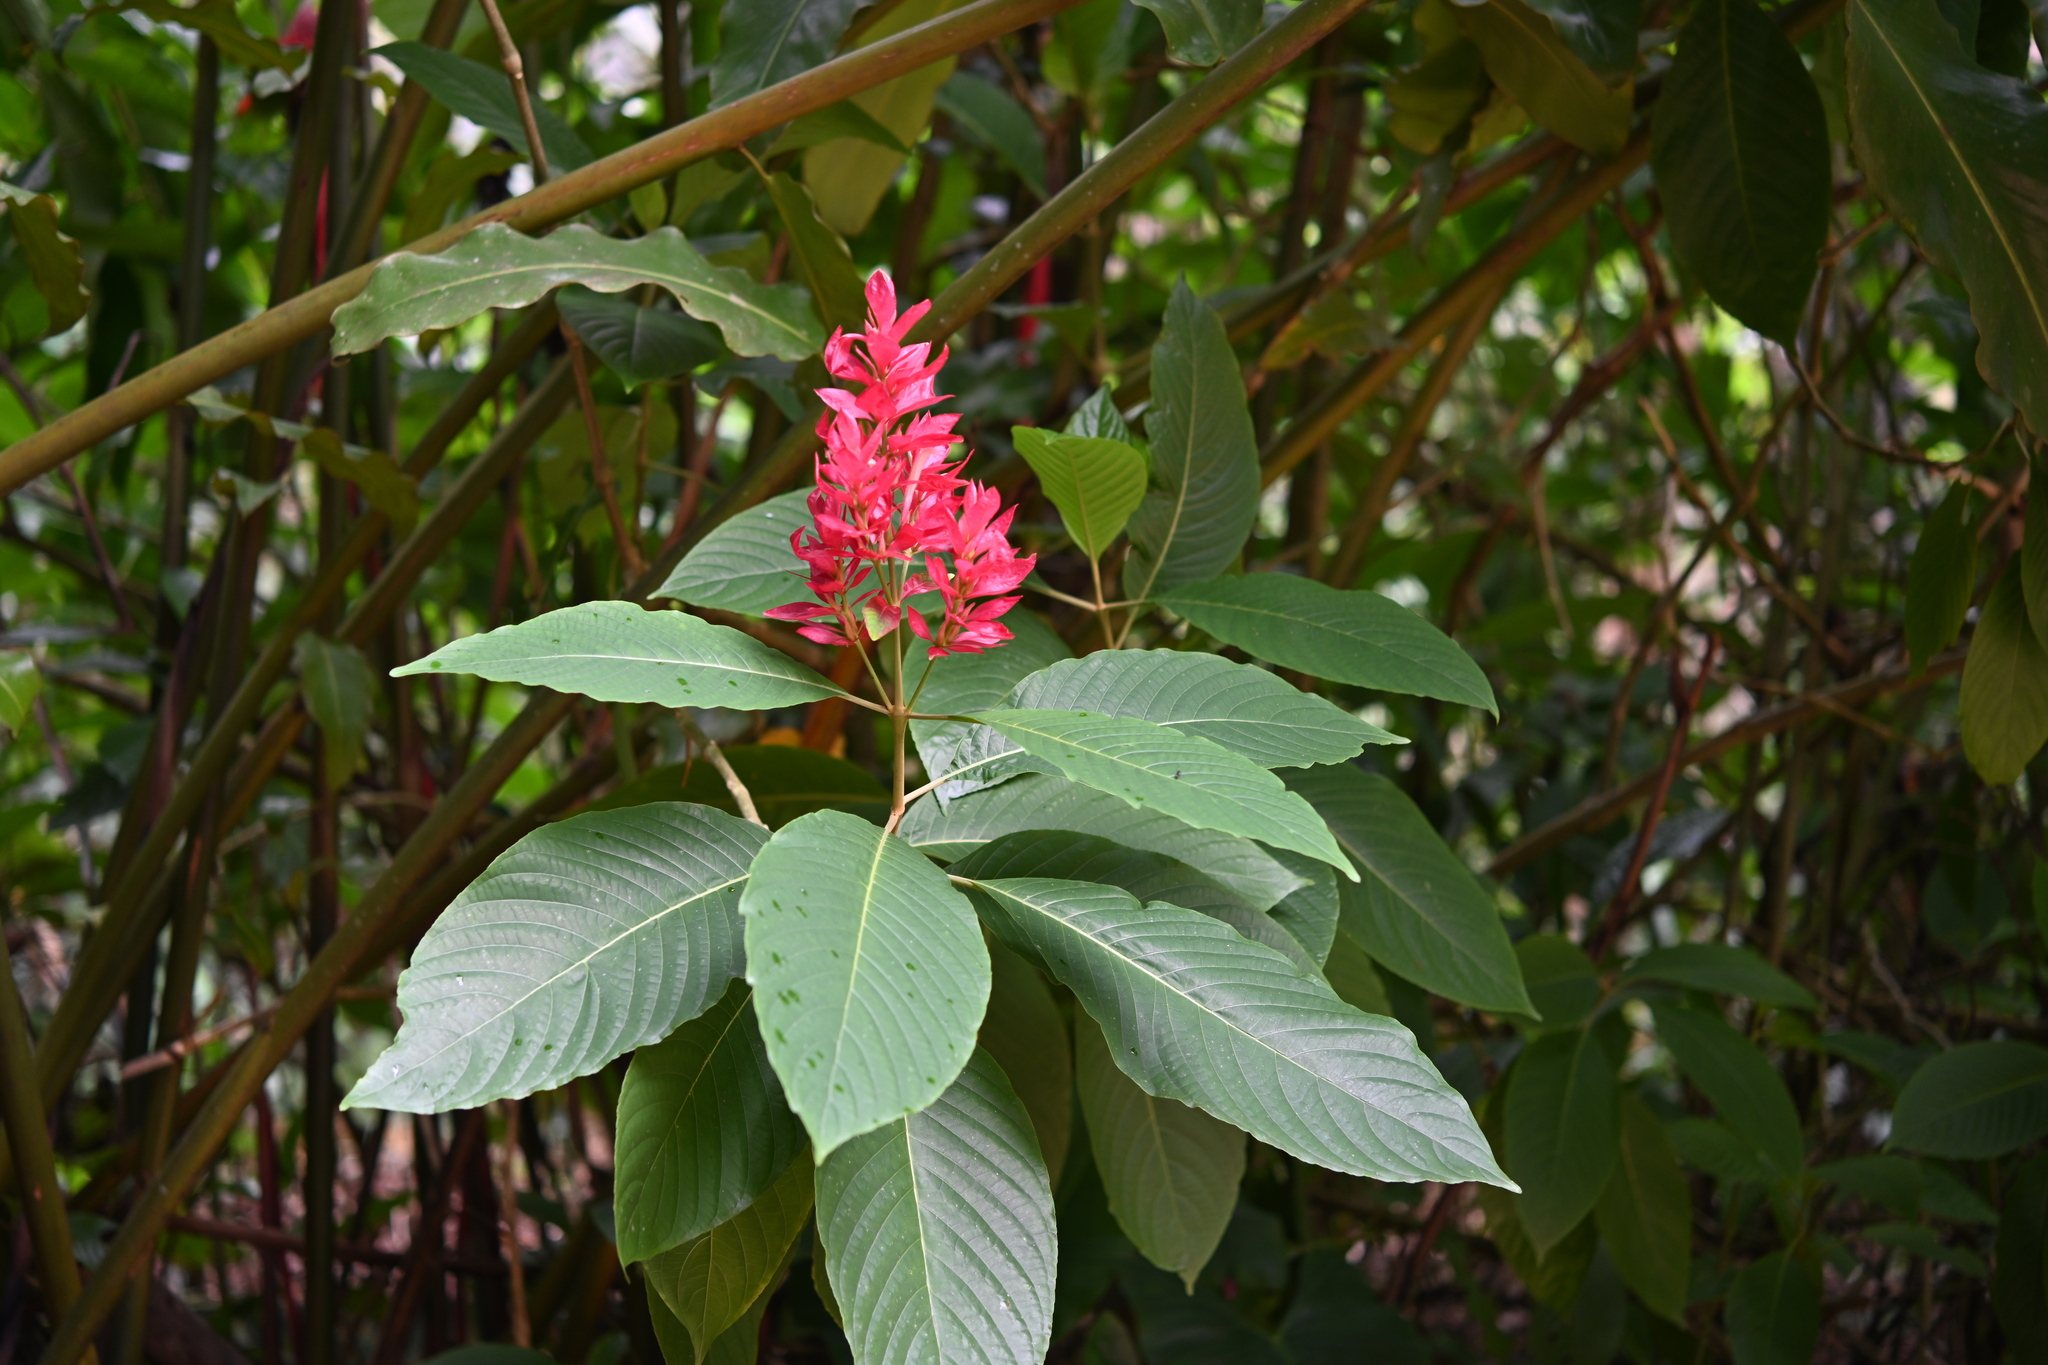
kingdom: Plantae
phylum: Tracheophyta
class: Magnoliopsida
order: Lamiales
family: Acanthaceae
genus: Megaskepasma
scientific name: Megaskepasma erythrochlamys
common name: Brazilian red-cloak
